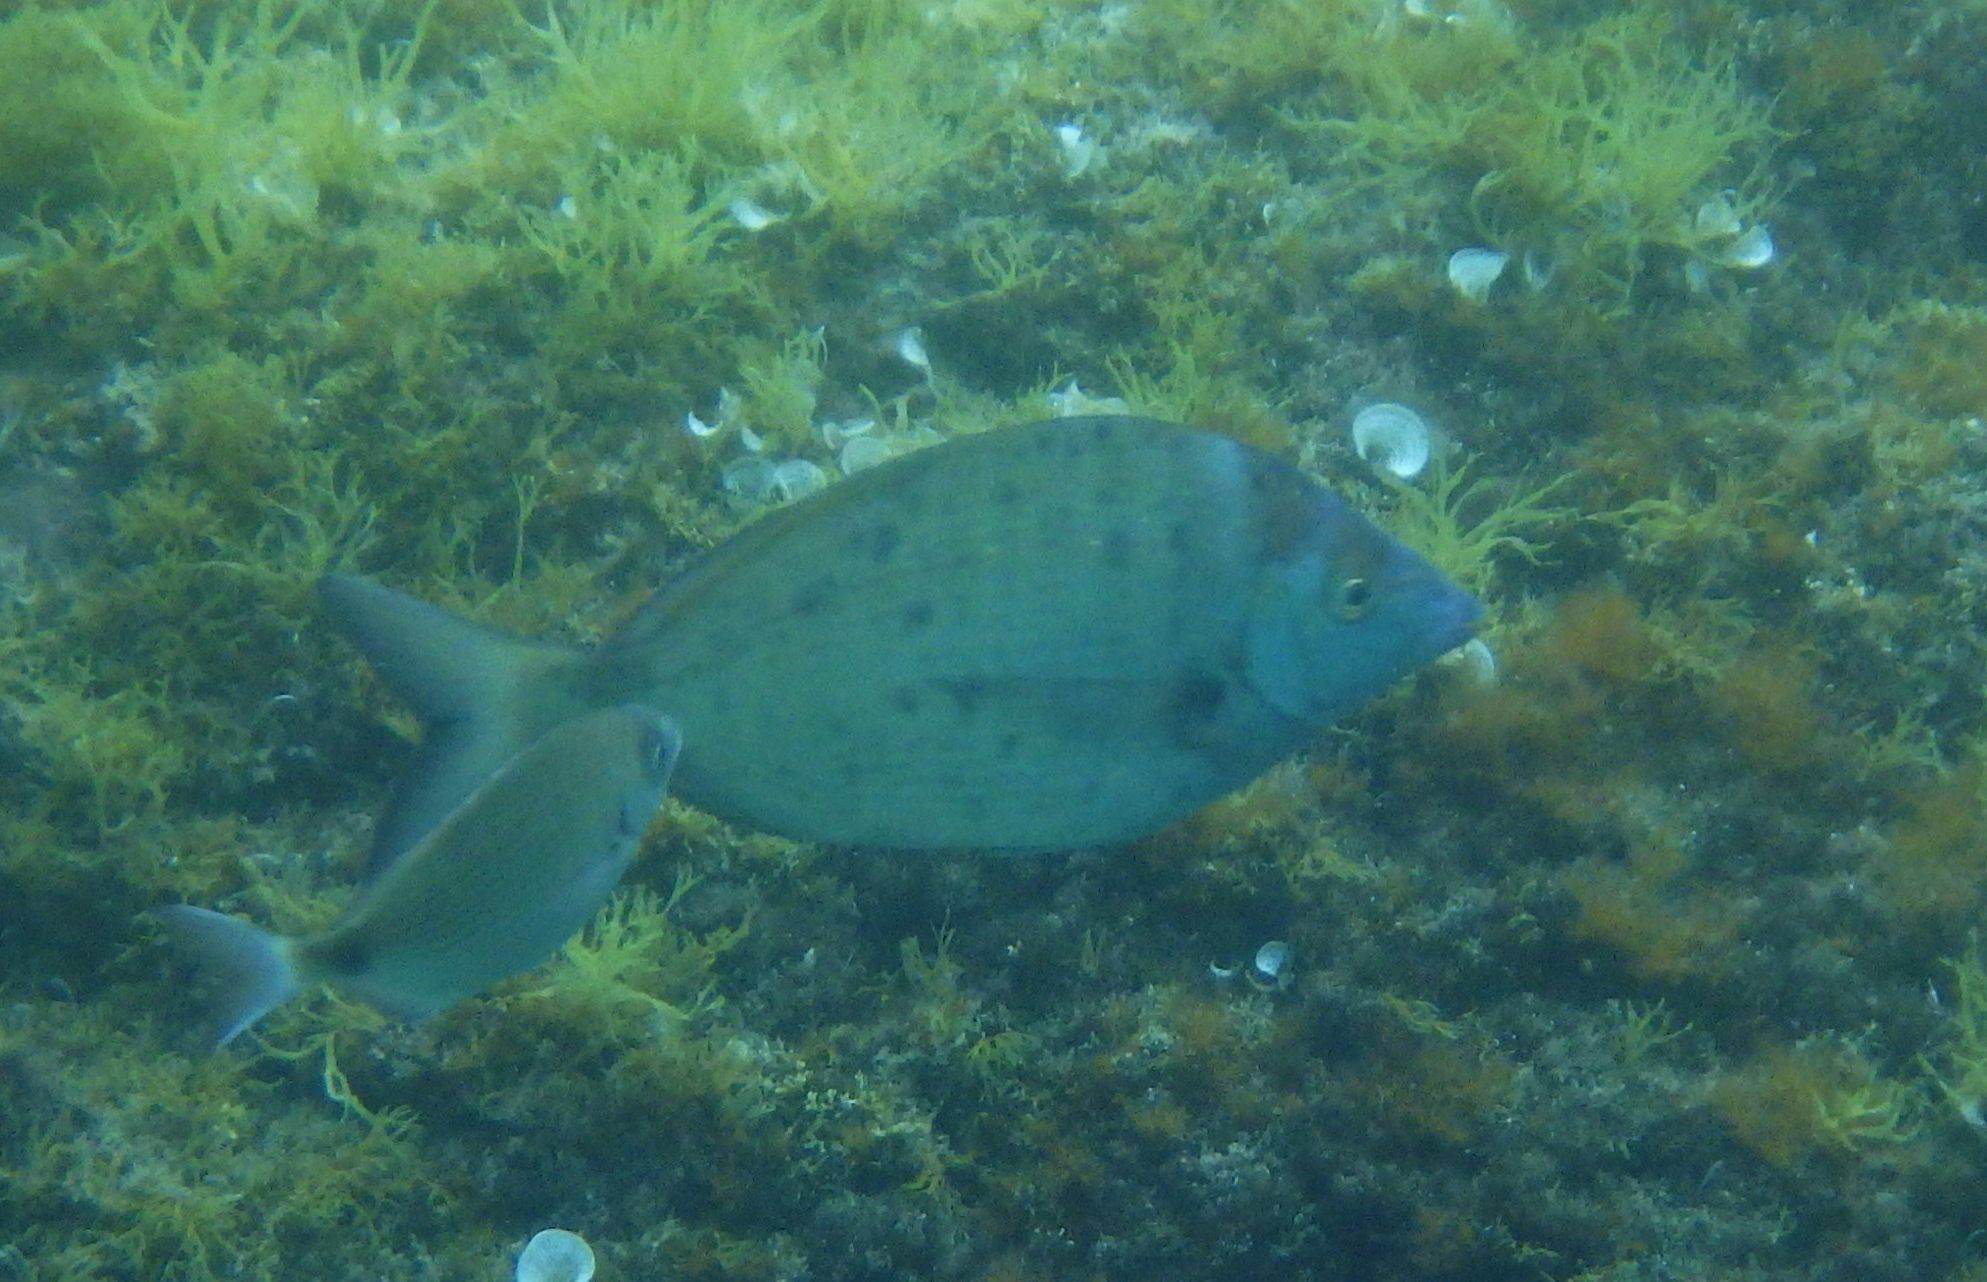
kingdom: Animalia
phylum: Chordata
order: Perciformes
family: Sparidae
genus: Diplodus
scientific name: Diplodus puntazzo
